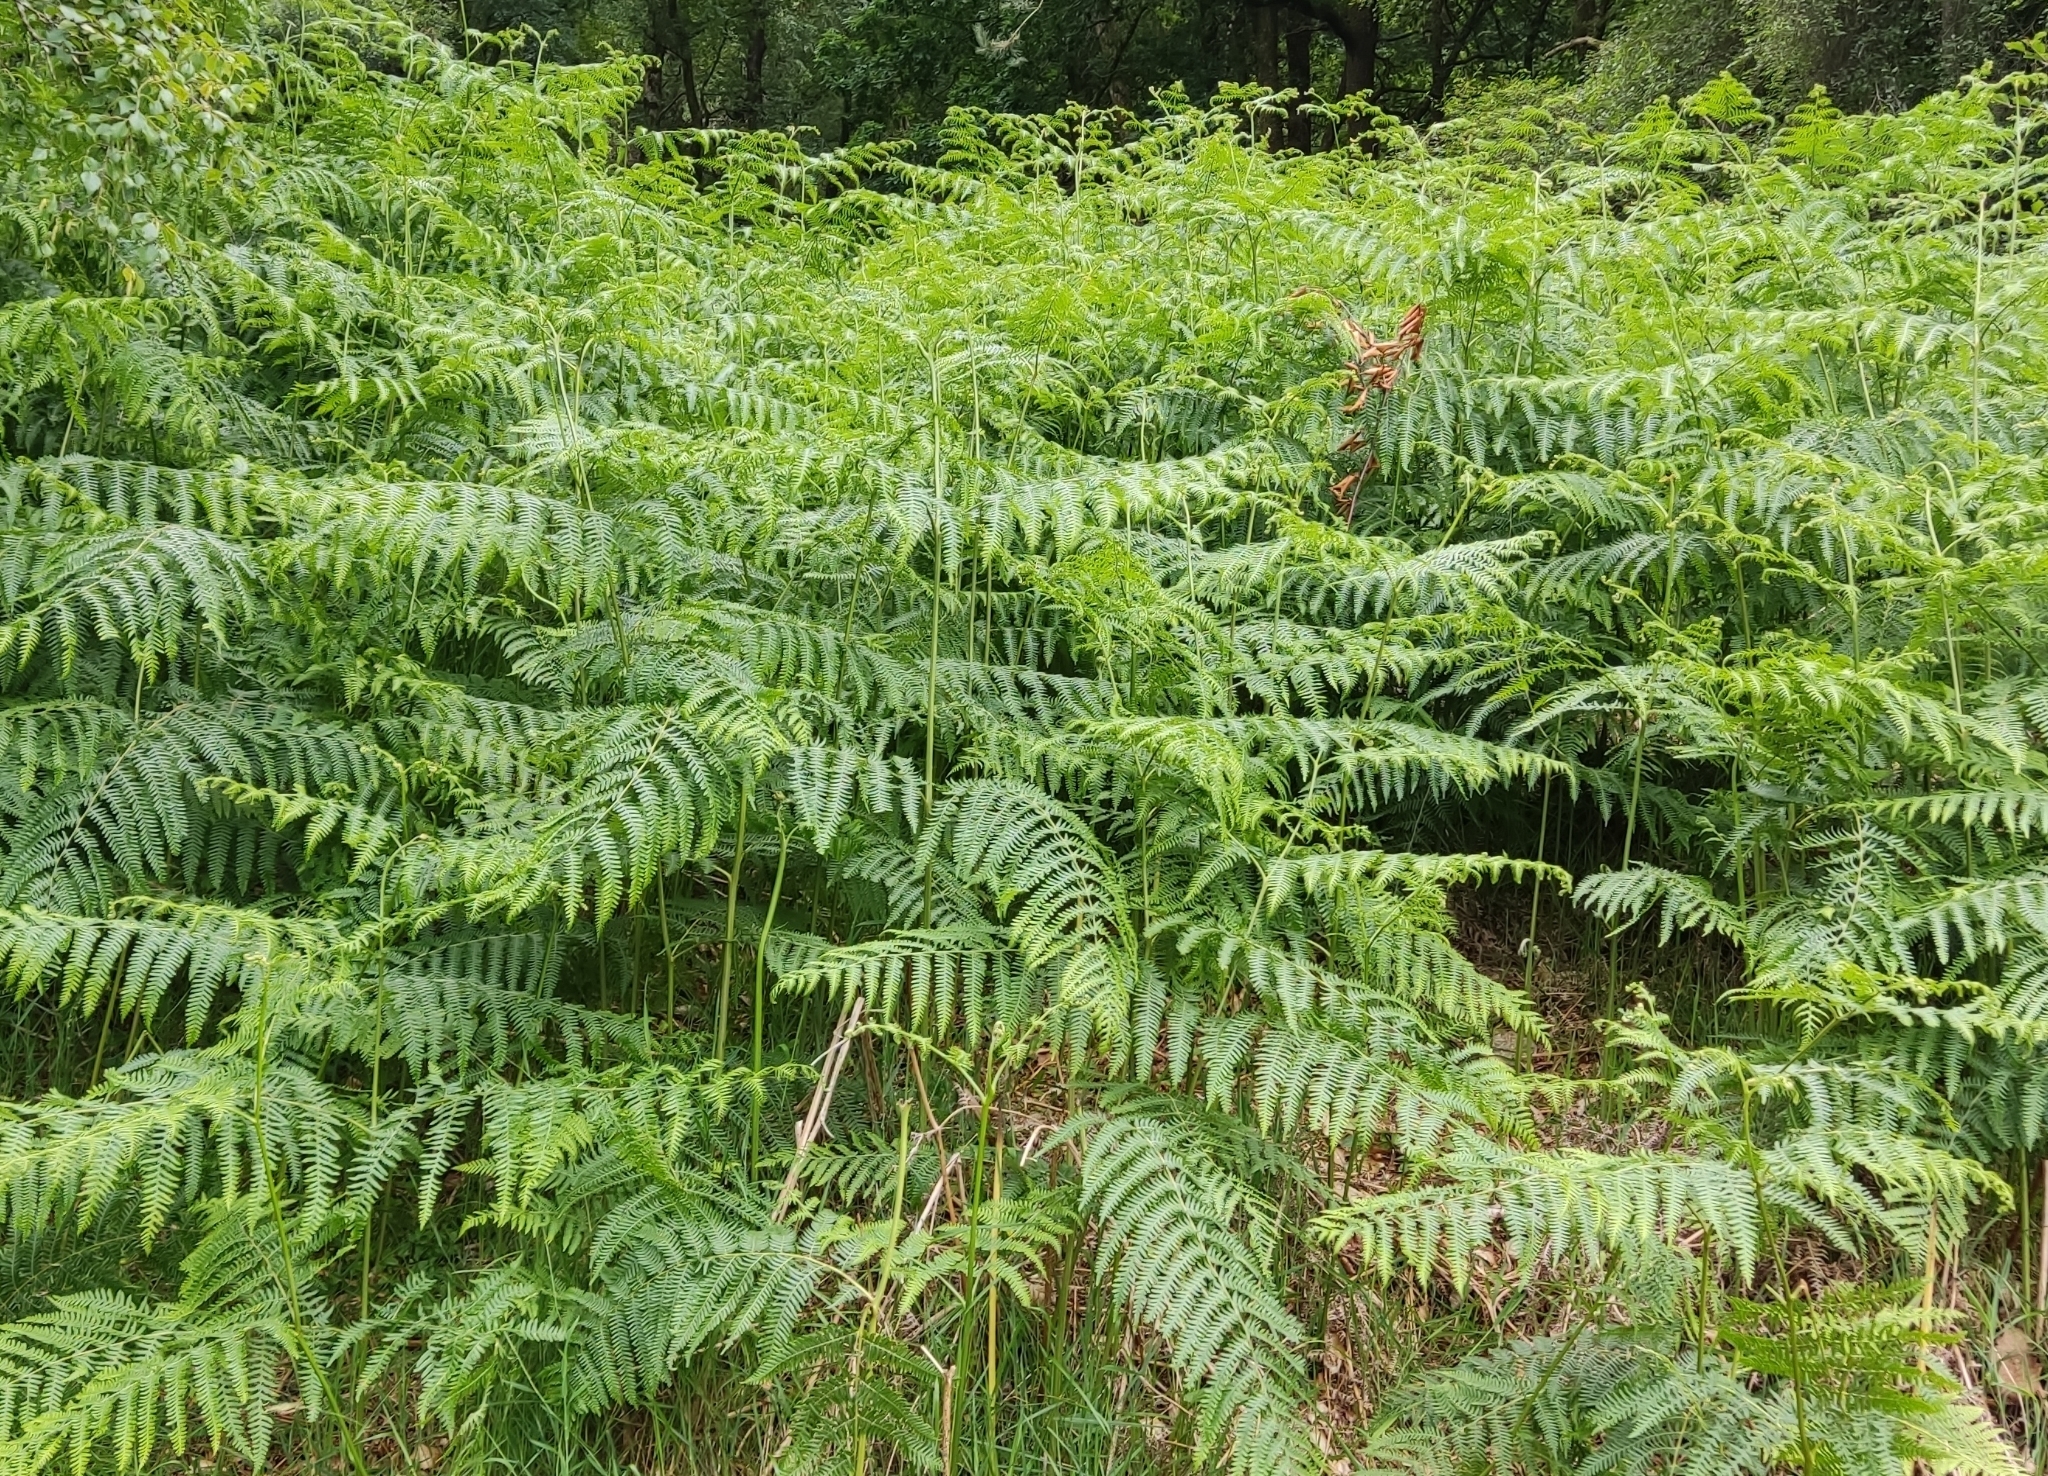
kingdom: Plantae
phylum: Tracheophyta
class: Polypodiopsida
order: Polypodiales
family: Dennstaedtiaceae
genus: Pteridium
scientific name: Pteridium aquilinum
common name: Bracken
